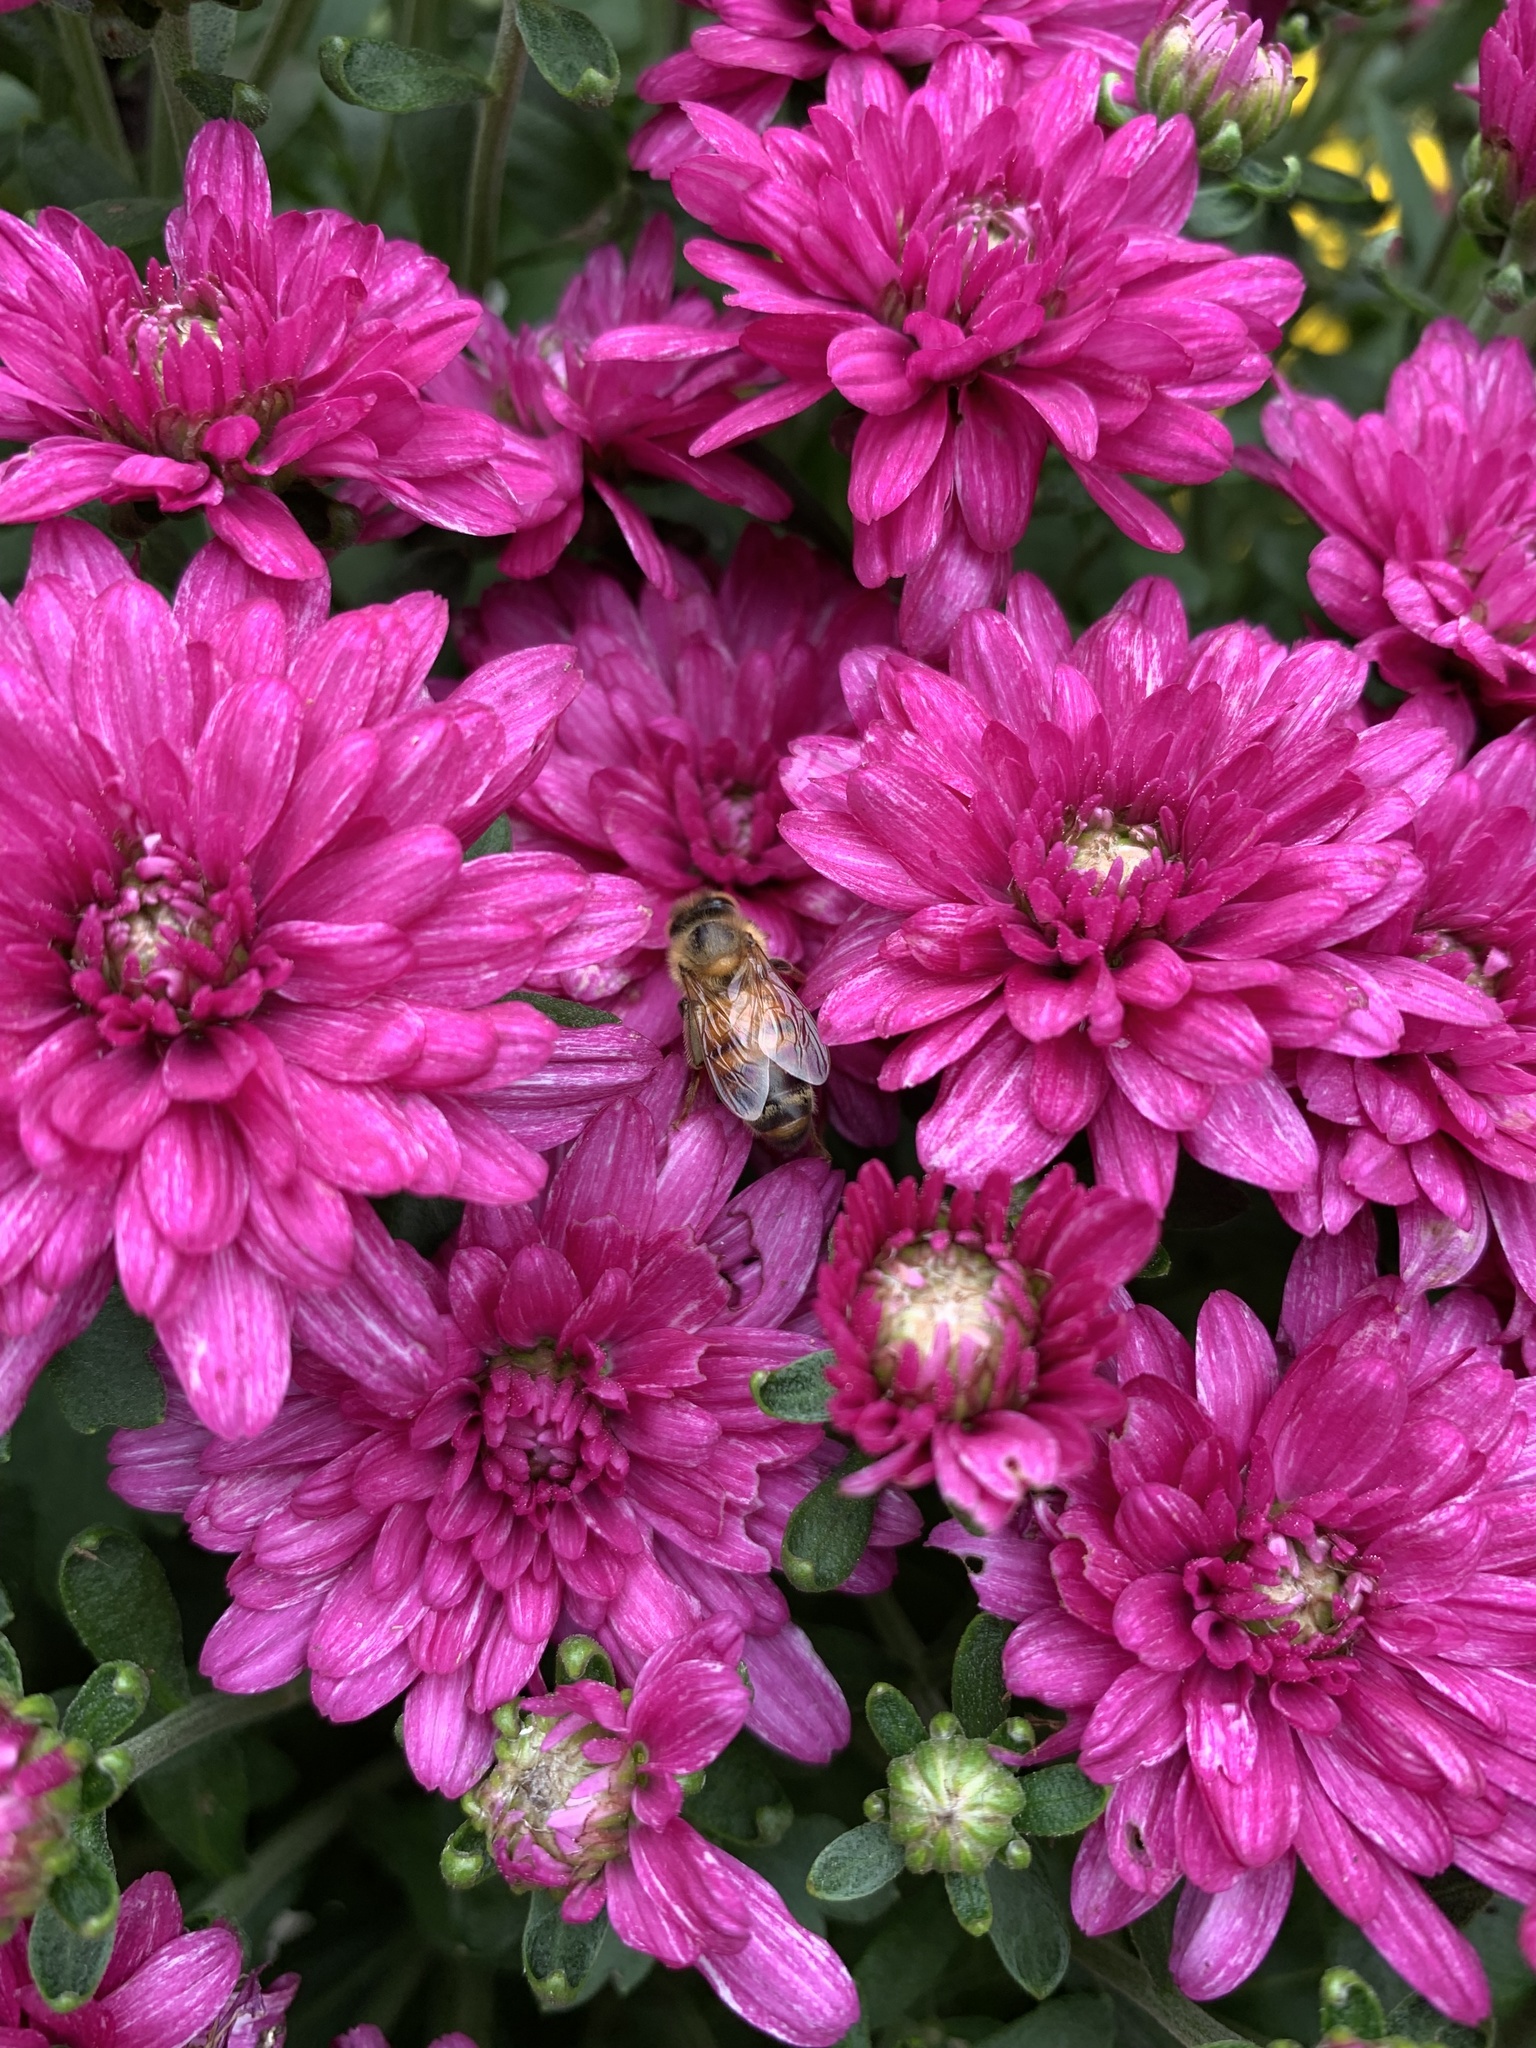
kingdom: Animalia
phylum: Arthropoda
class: Insecta
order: Hymenoptera
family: Apidae
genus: Apis
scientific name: Apis mellifera
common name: Honey bee
